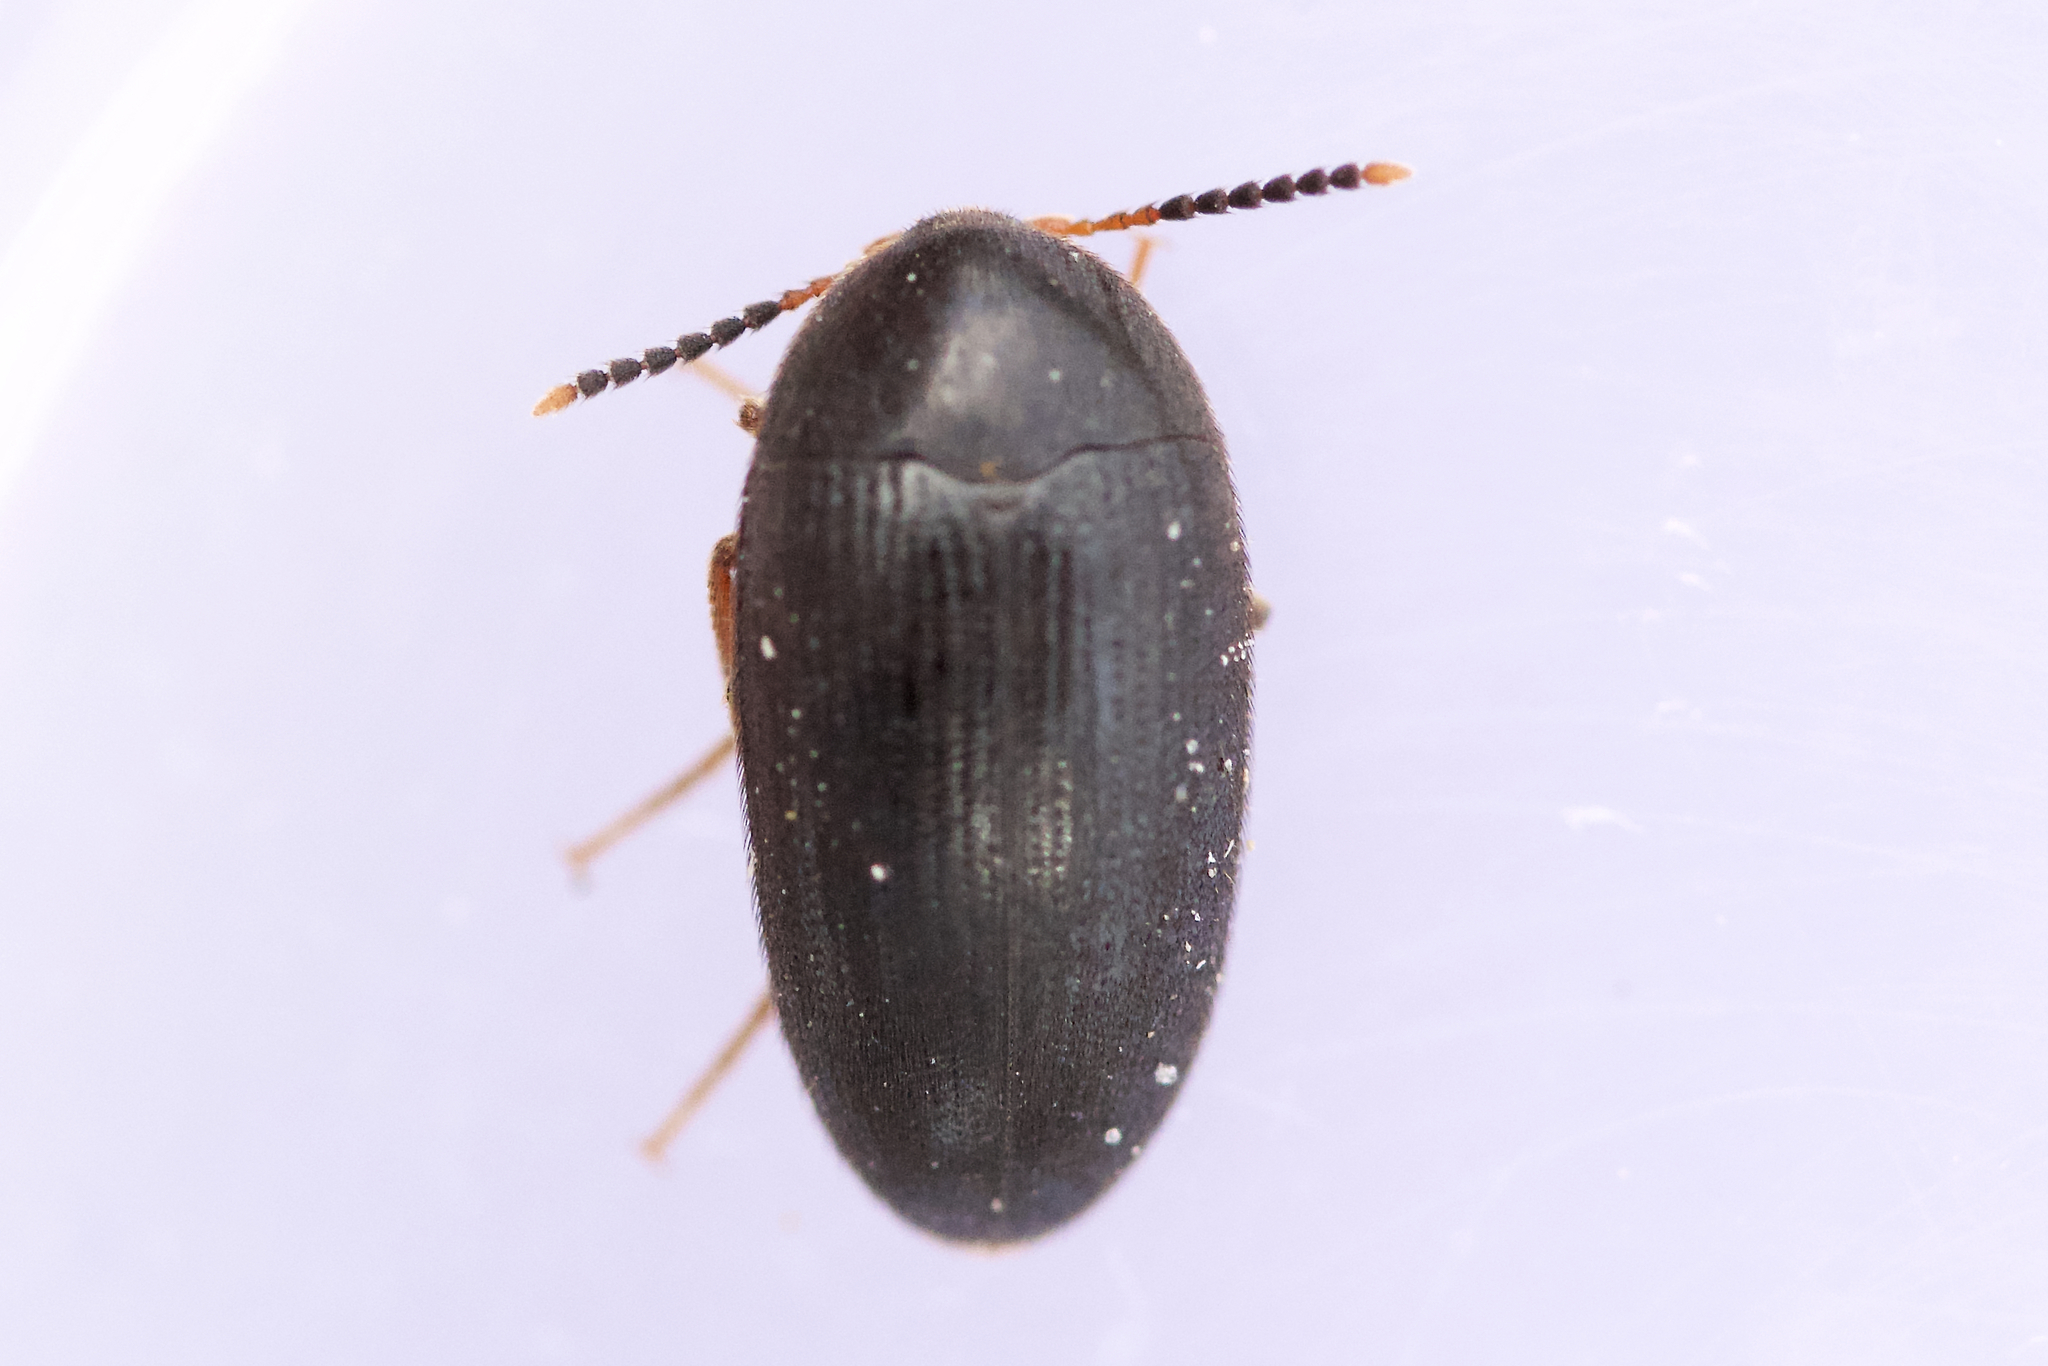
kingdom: Animalia
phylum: Arthropoda
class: Insecta
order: Coleoptera
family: Tetratomidae
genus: Eustrophopsis
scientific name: Eustrophopsis bicolor
